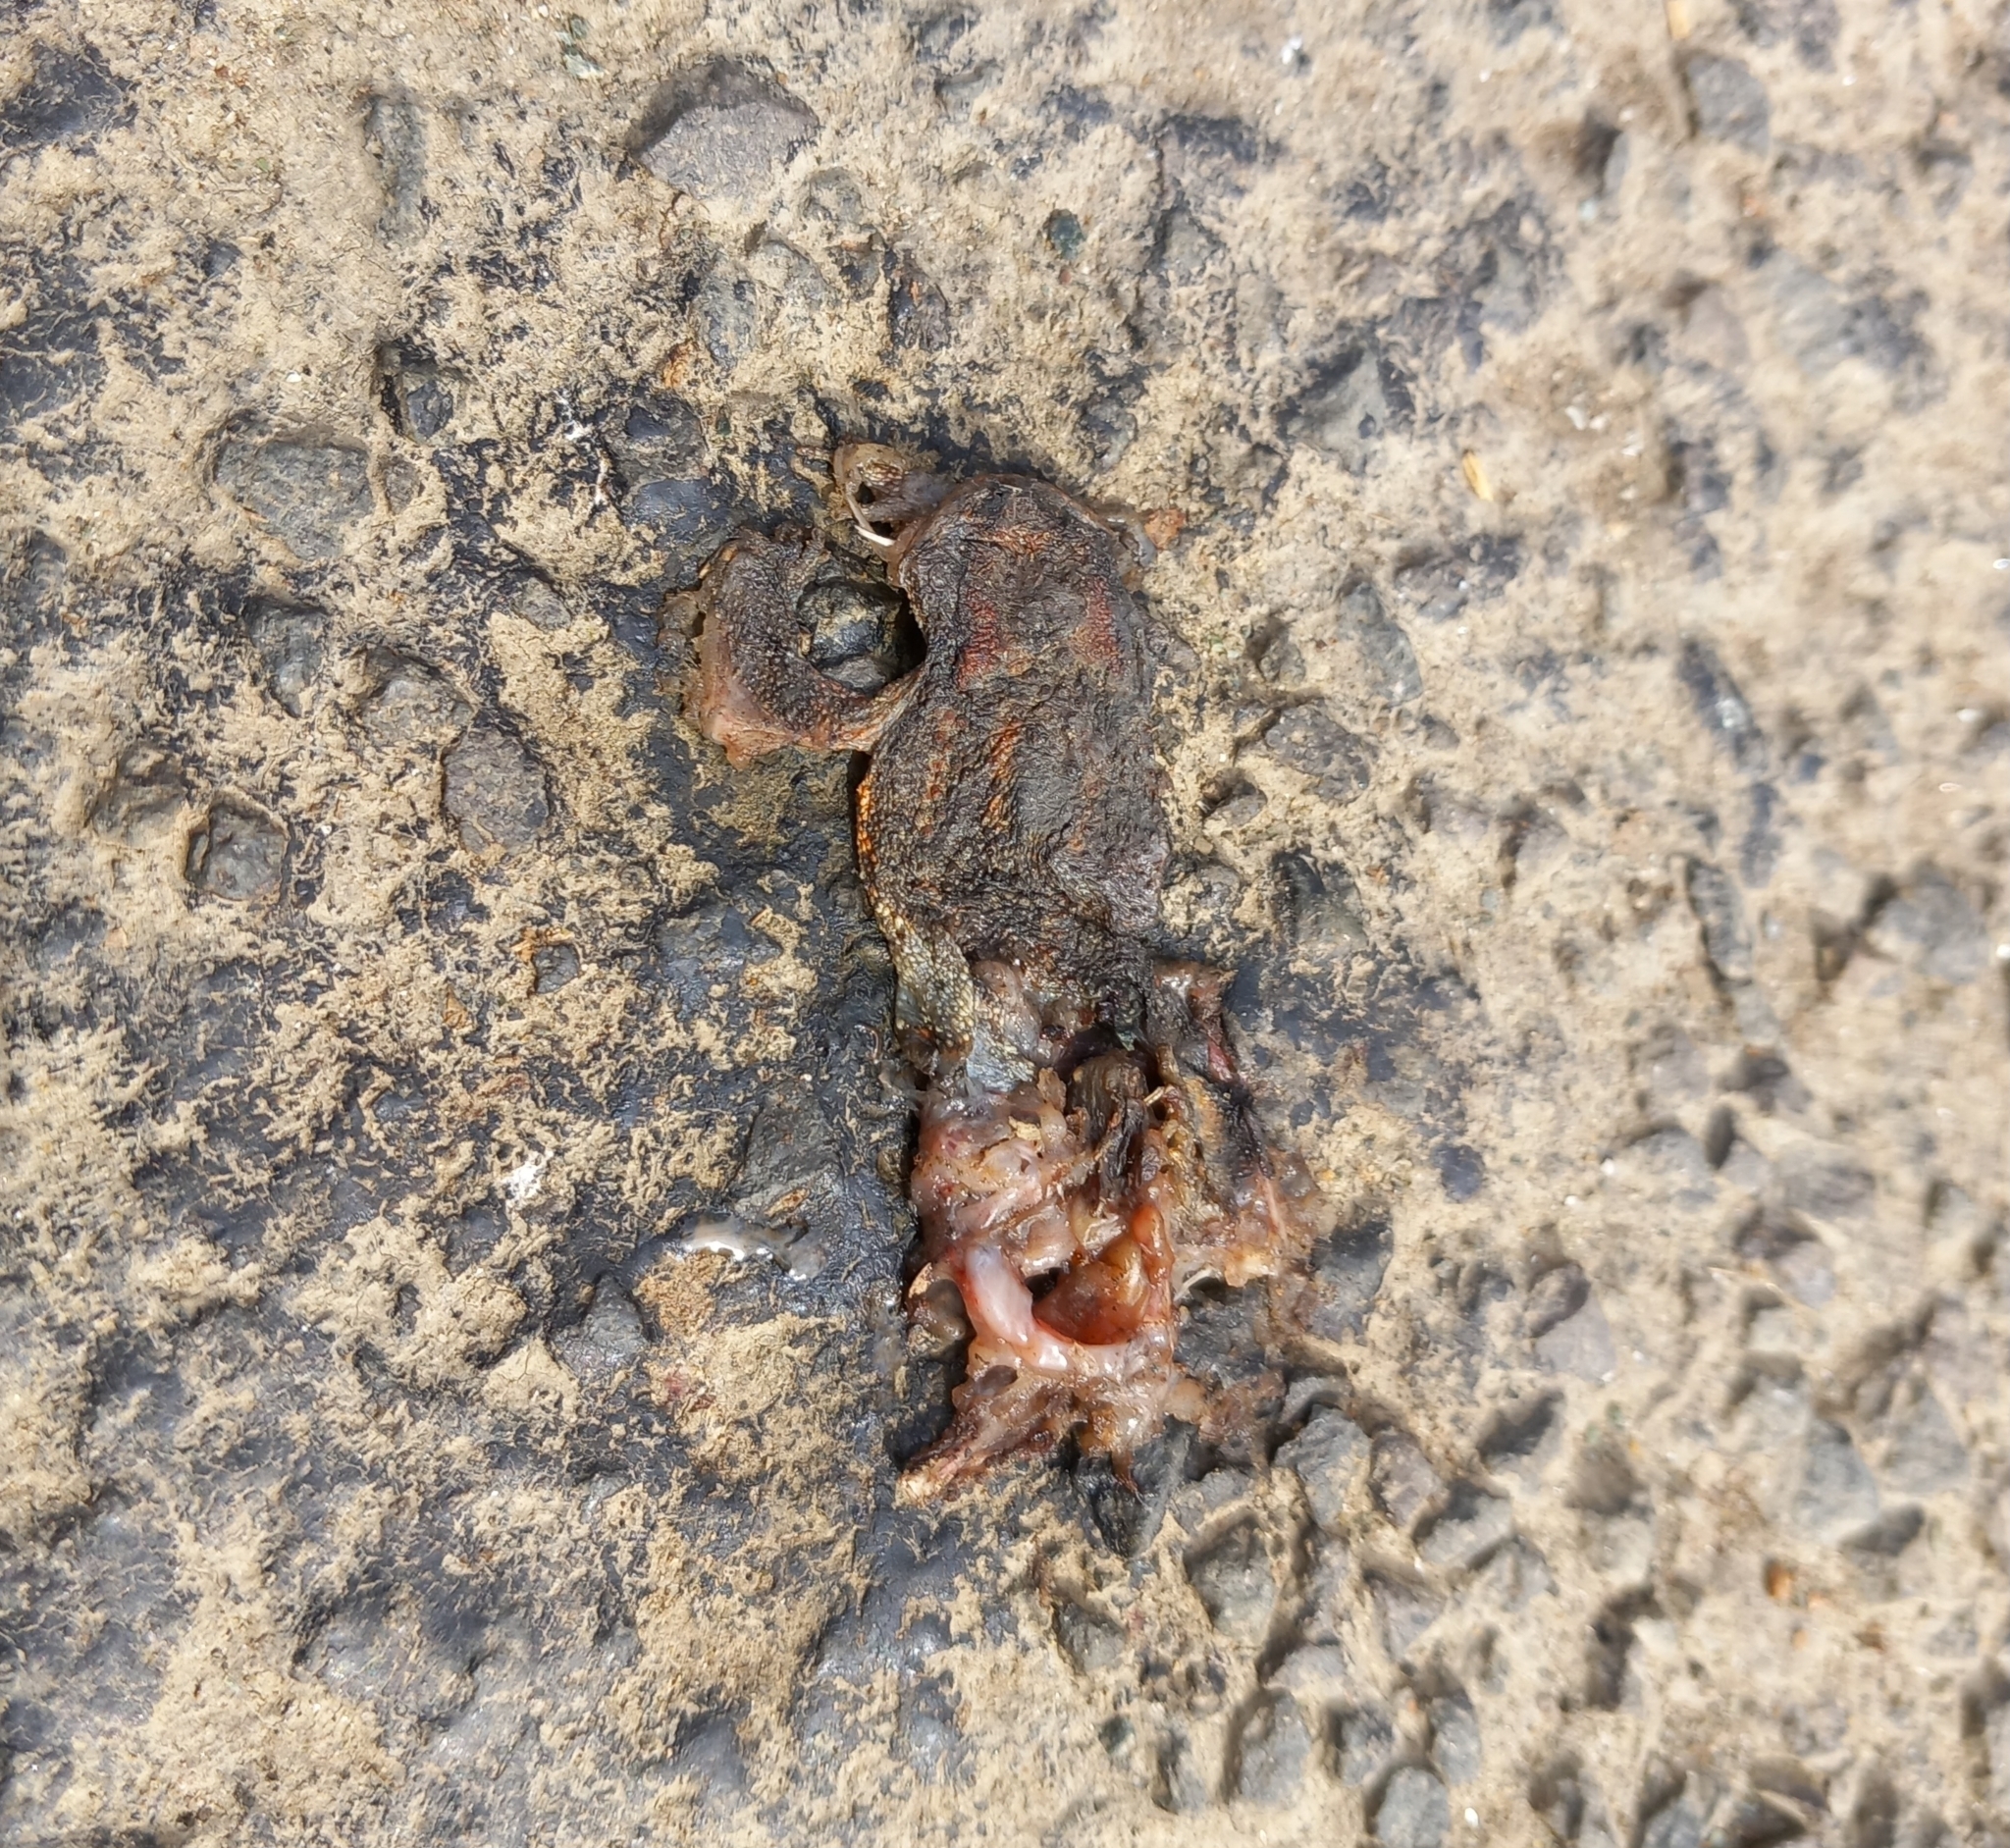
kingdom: Animalia
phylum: Chordata
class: Amphibia
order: Anura
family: Bufonidae
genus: Bufo
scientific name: Bufo bufo
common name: Common toad
